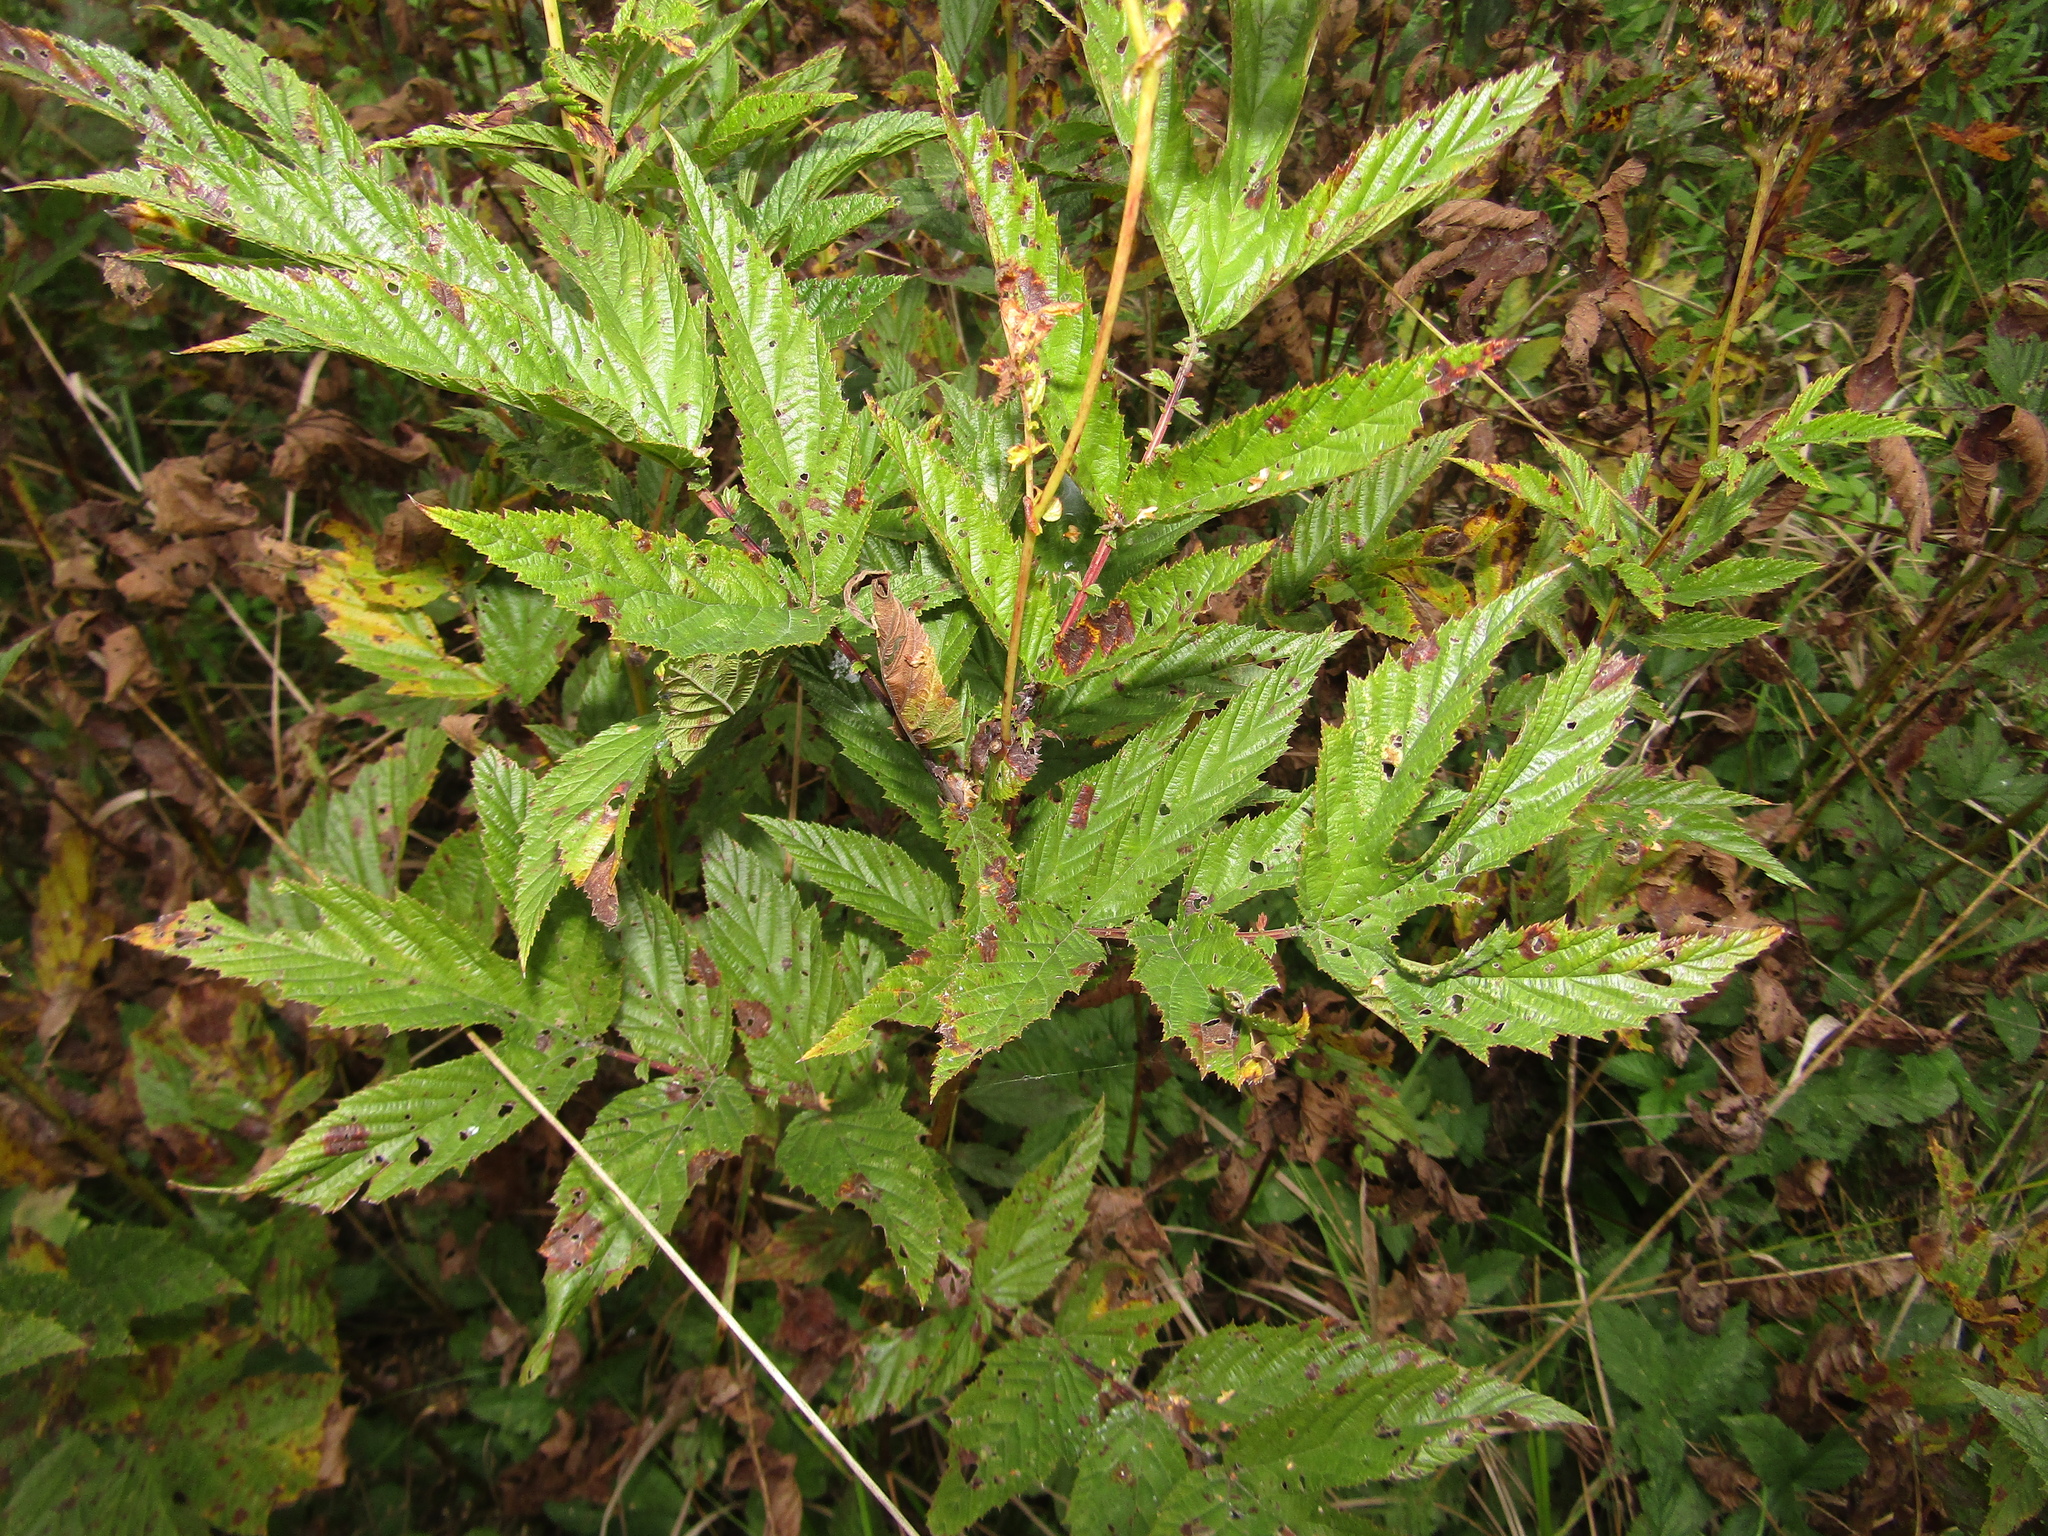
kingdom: Plantae
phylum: Tracheophyta
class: Magnoliopsida
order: Rosales
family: Rosaceae
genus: Filipendula
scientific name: Filipendula ulmaria
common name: Meadowsweet
